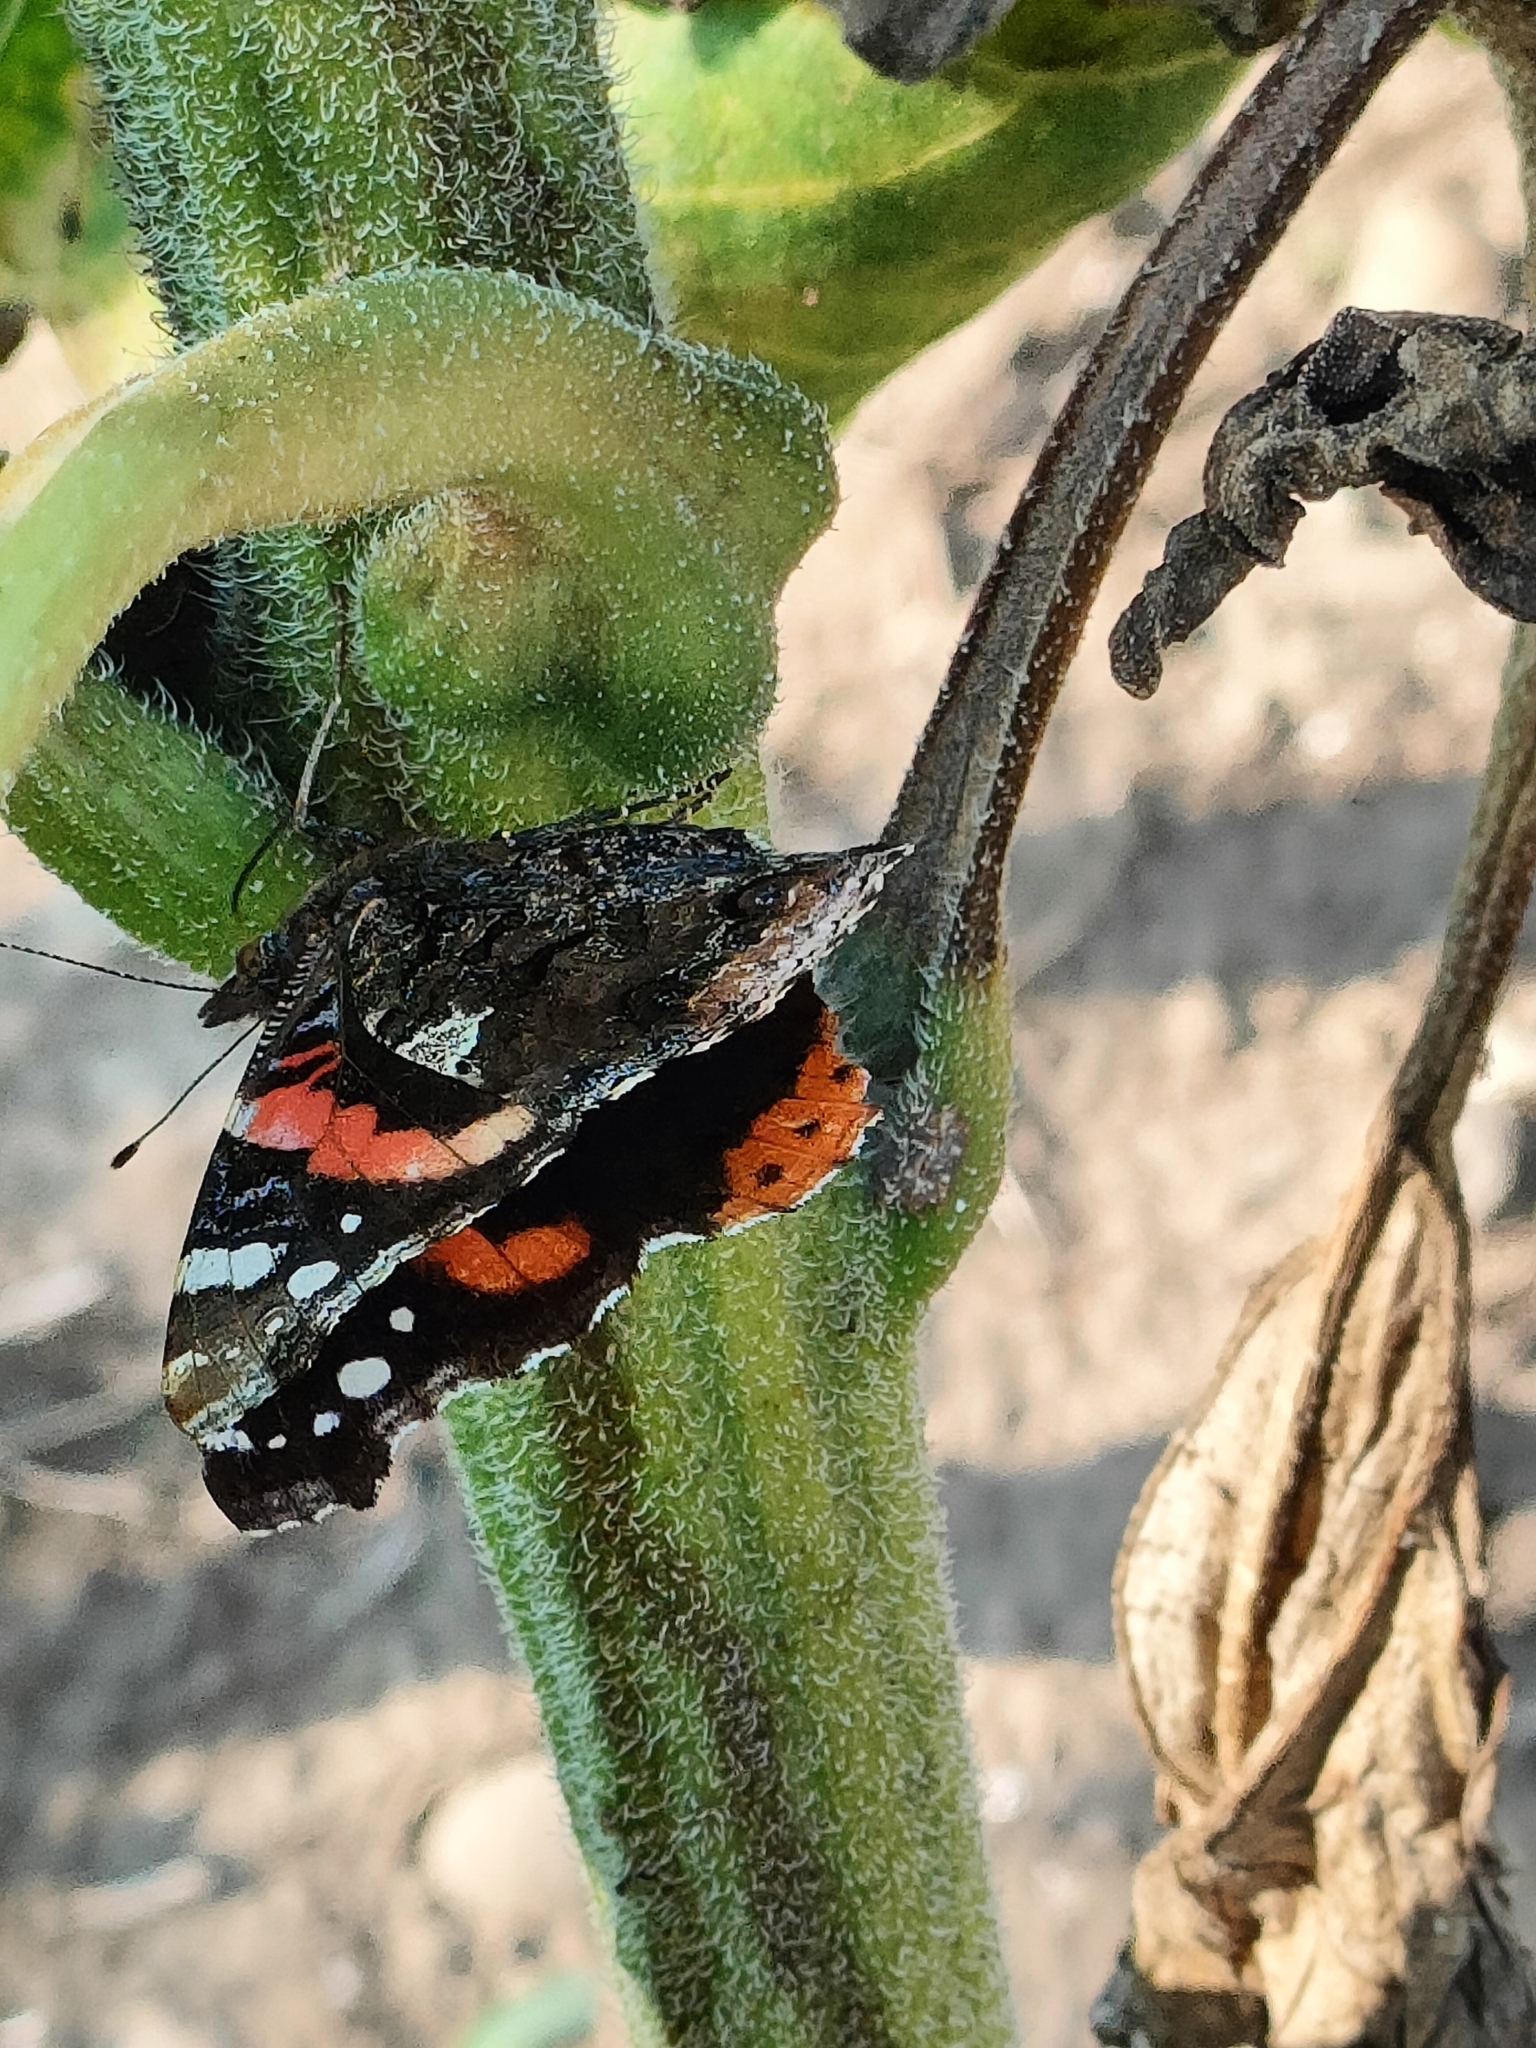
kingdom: Animalia
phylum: Arthropoda
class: Insecta
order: Lepidoptera
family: Nymphalidae
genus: Vanessa
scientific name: Vanessa atalanta
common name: Red admiral
